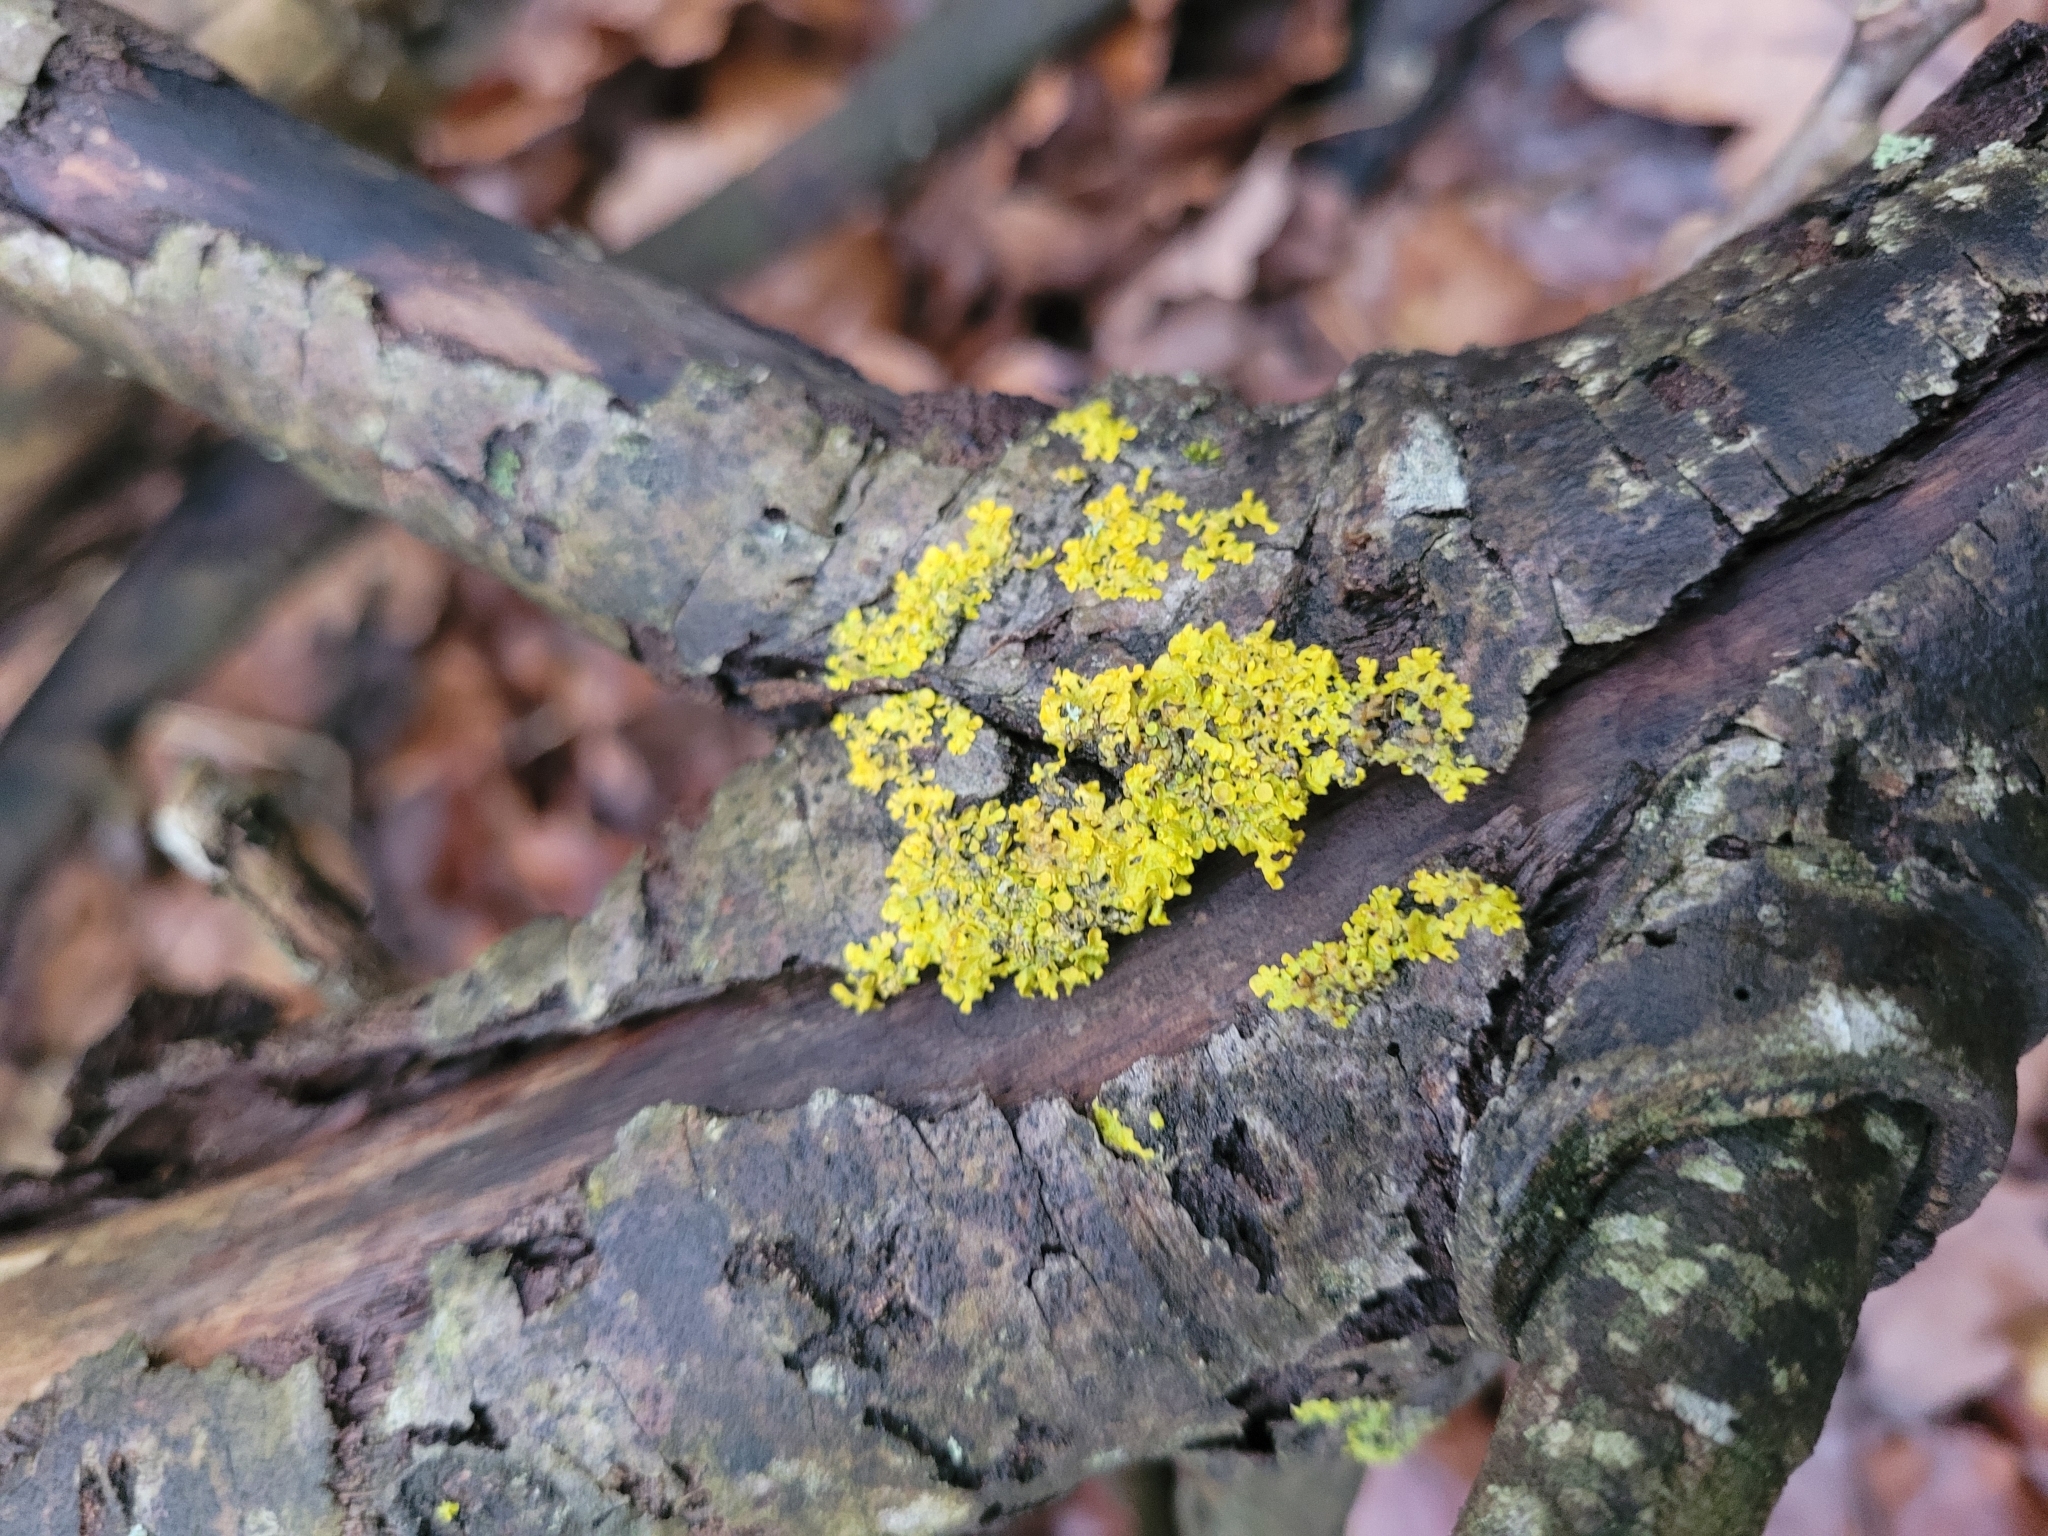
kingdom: Fungi
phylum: Ascomycota
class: Lecanoromycetes
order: Teloschistales
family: Teloschistaceae
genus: Xanthoria
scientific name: Xanthoria parietina
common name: Common orange lichen
